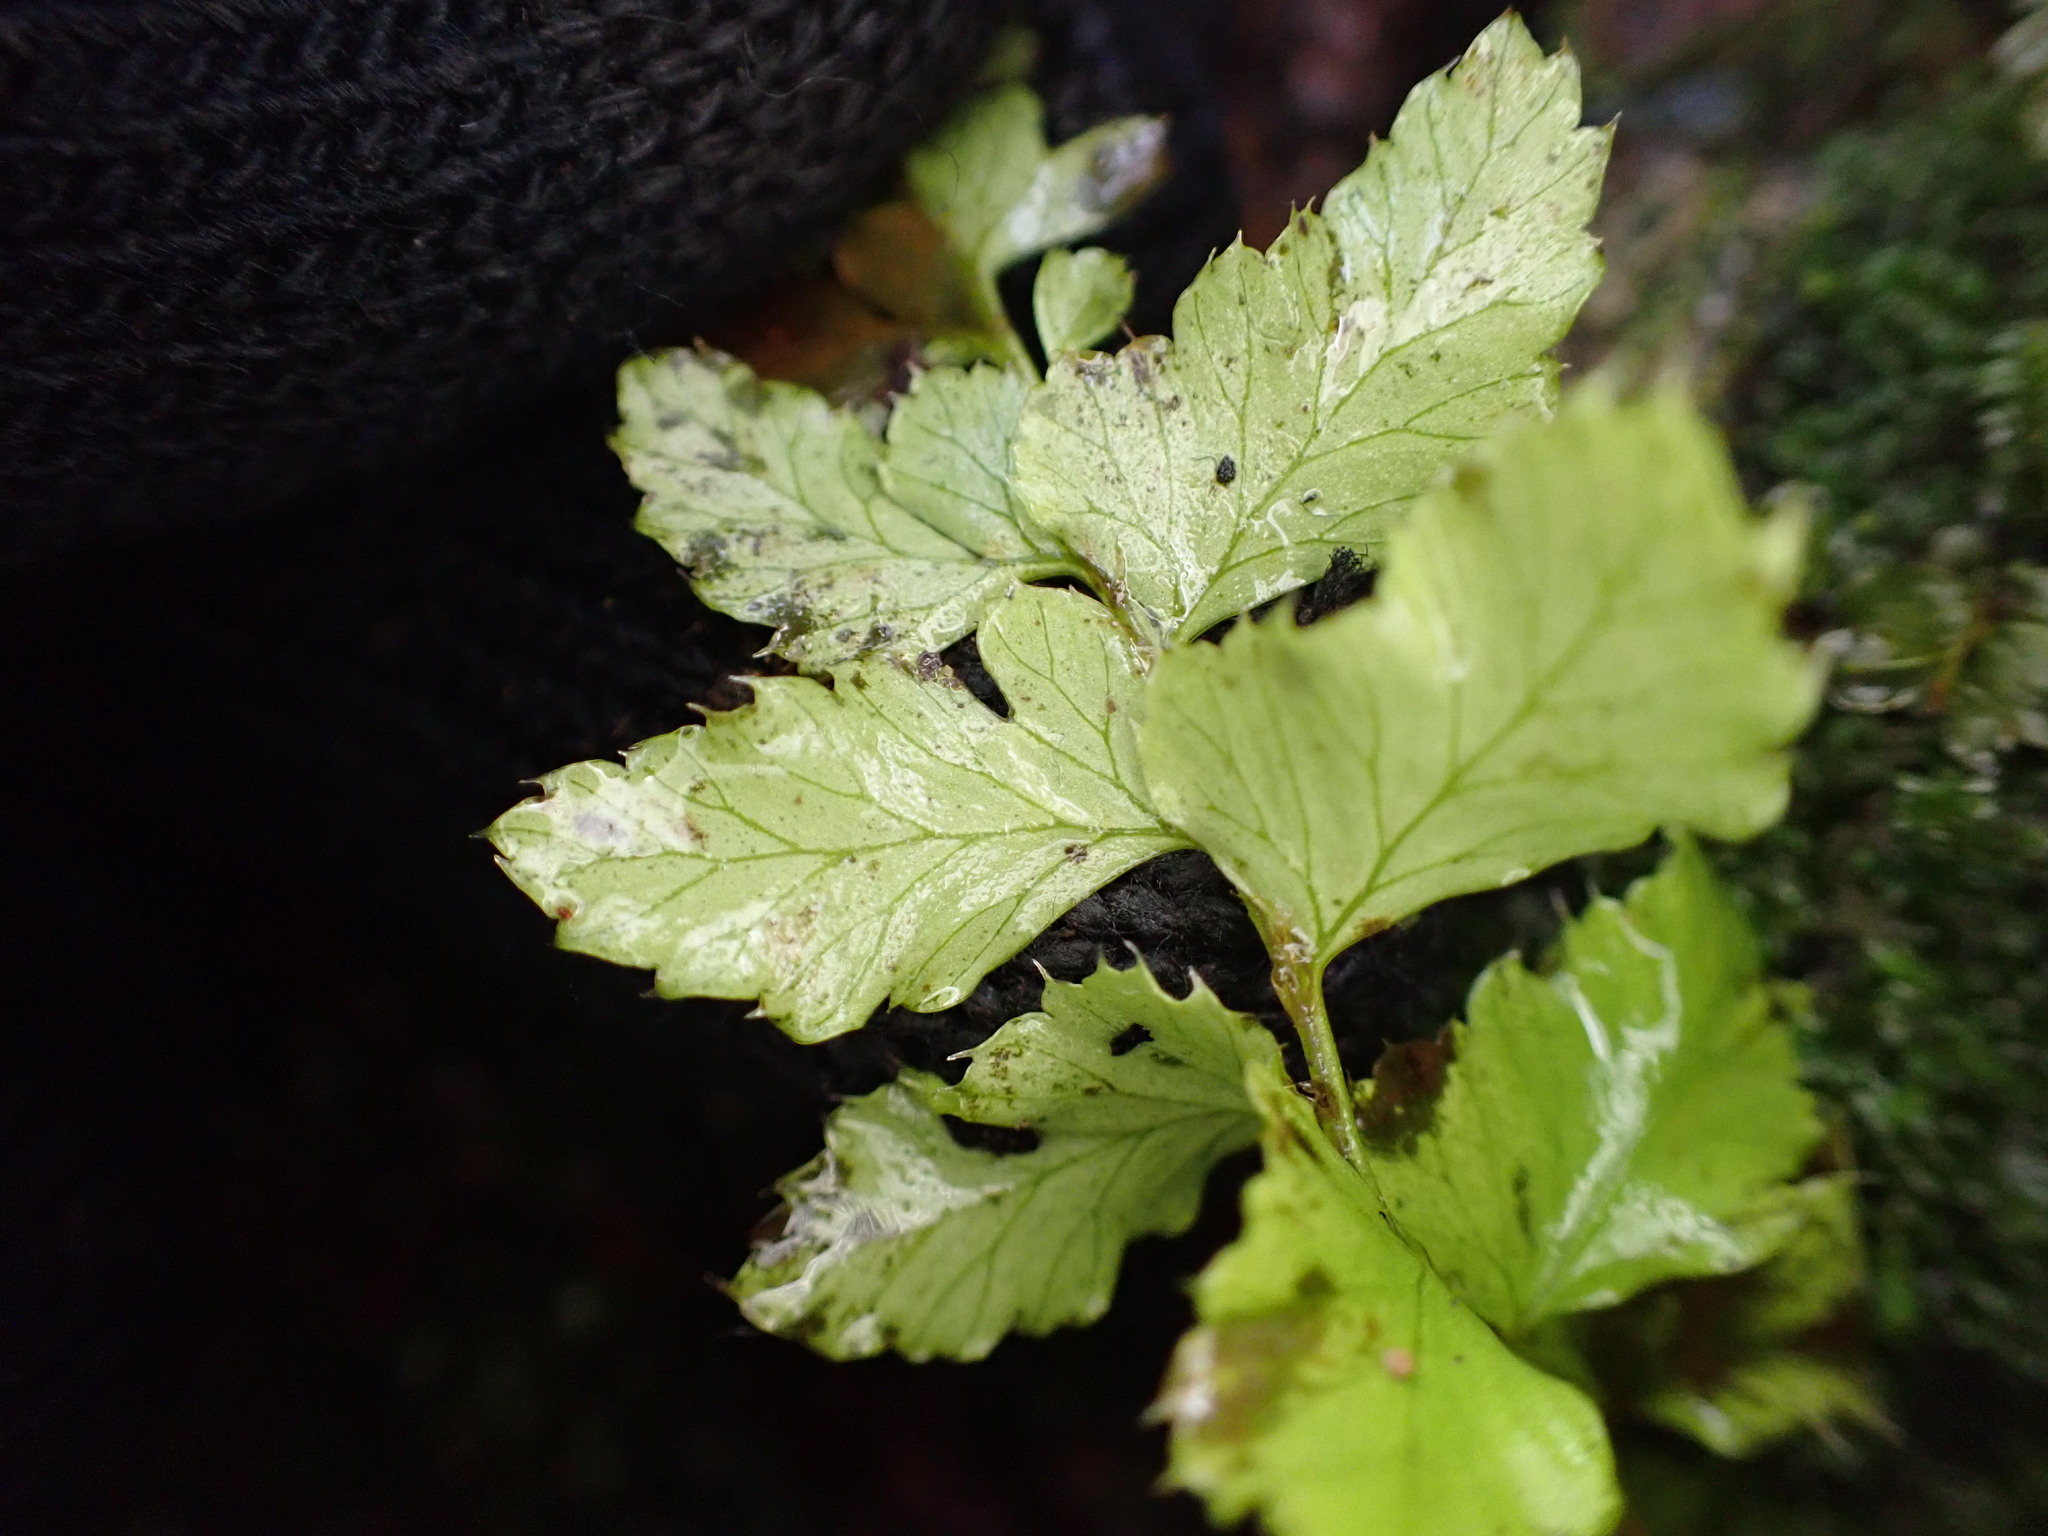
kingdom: Plantae
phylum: Tracheophyta
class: Polypodiopsida
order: Polypodiales
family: Dryopteridaceae
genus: Polystichum
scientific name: Polystichum munitum
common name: Western sword-fern
